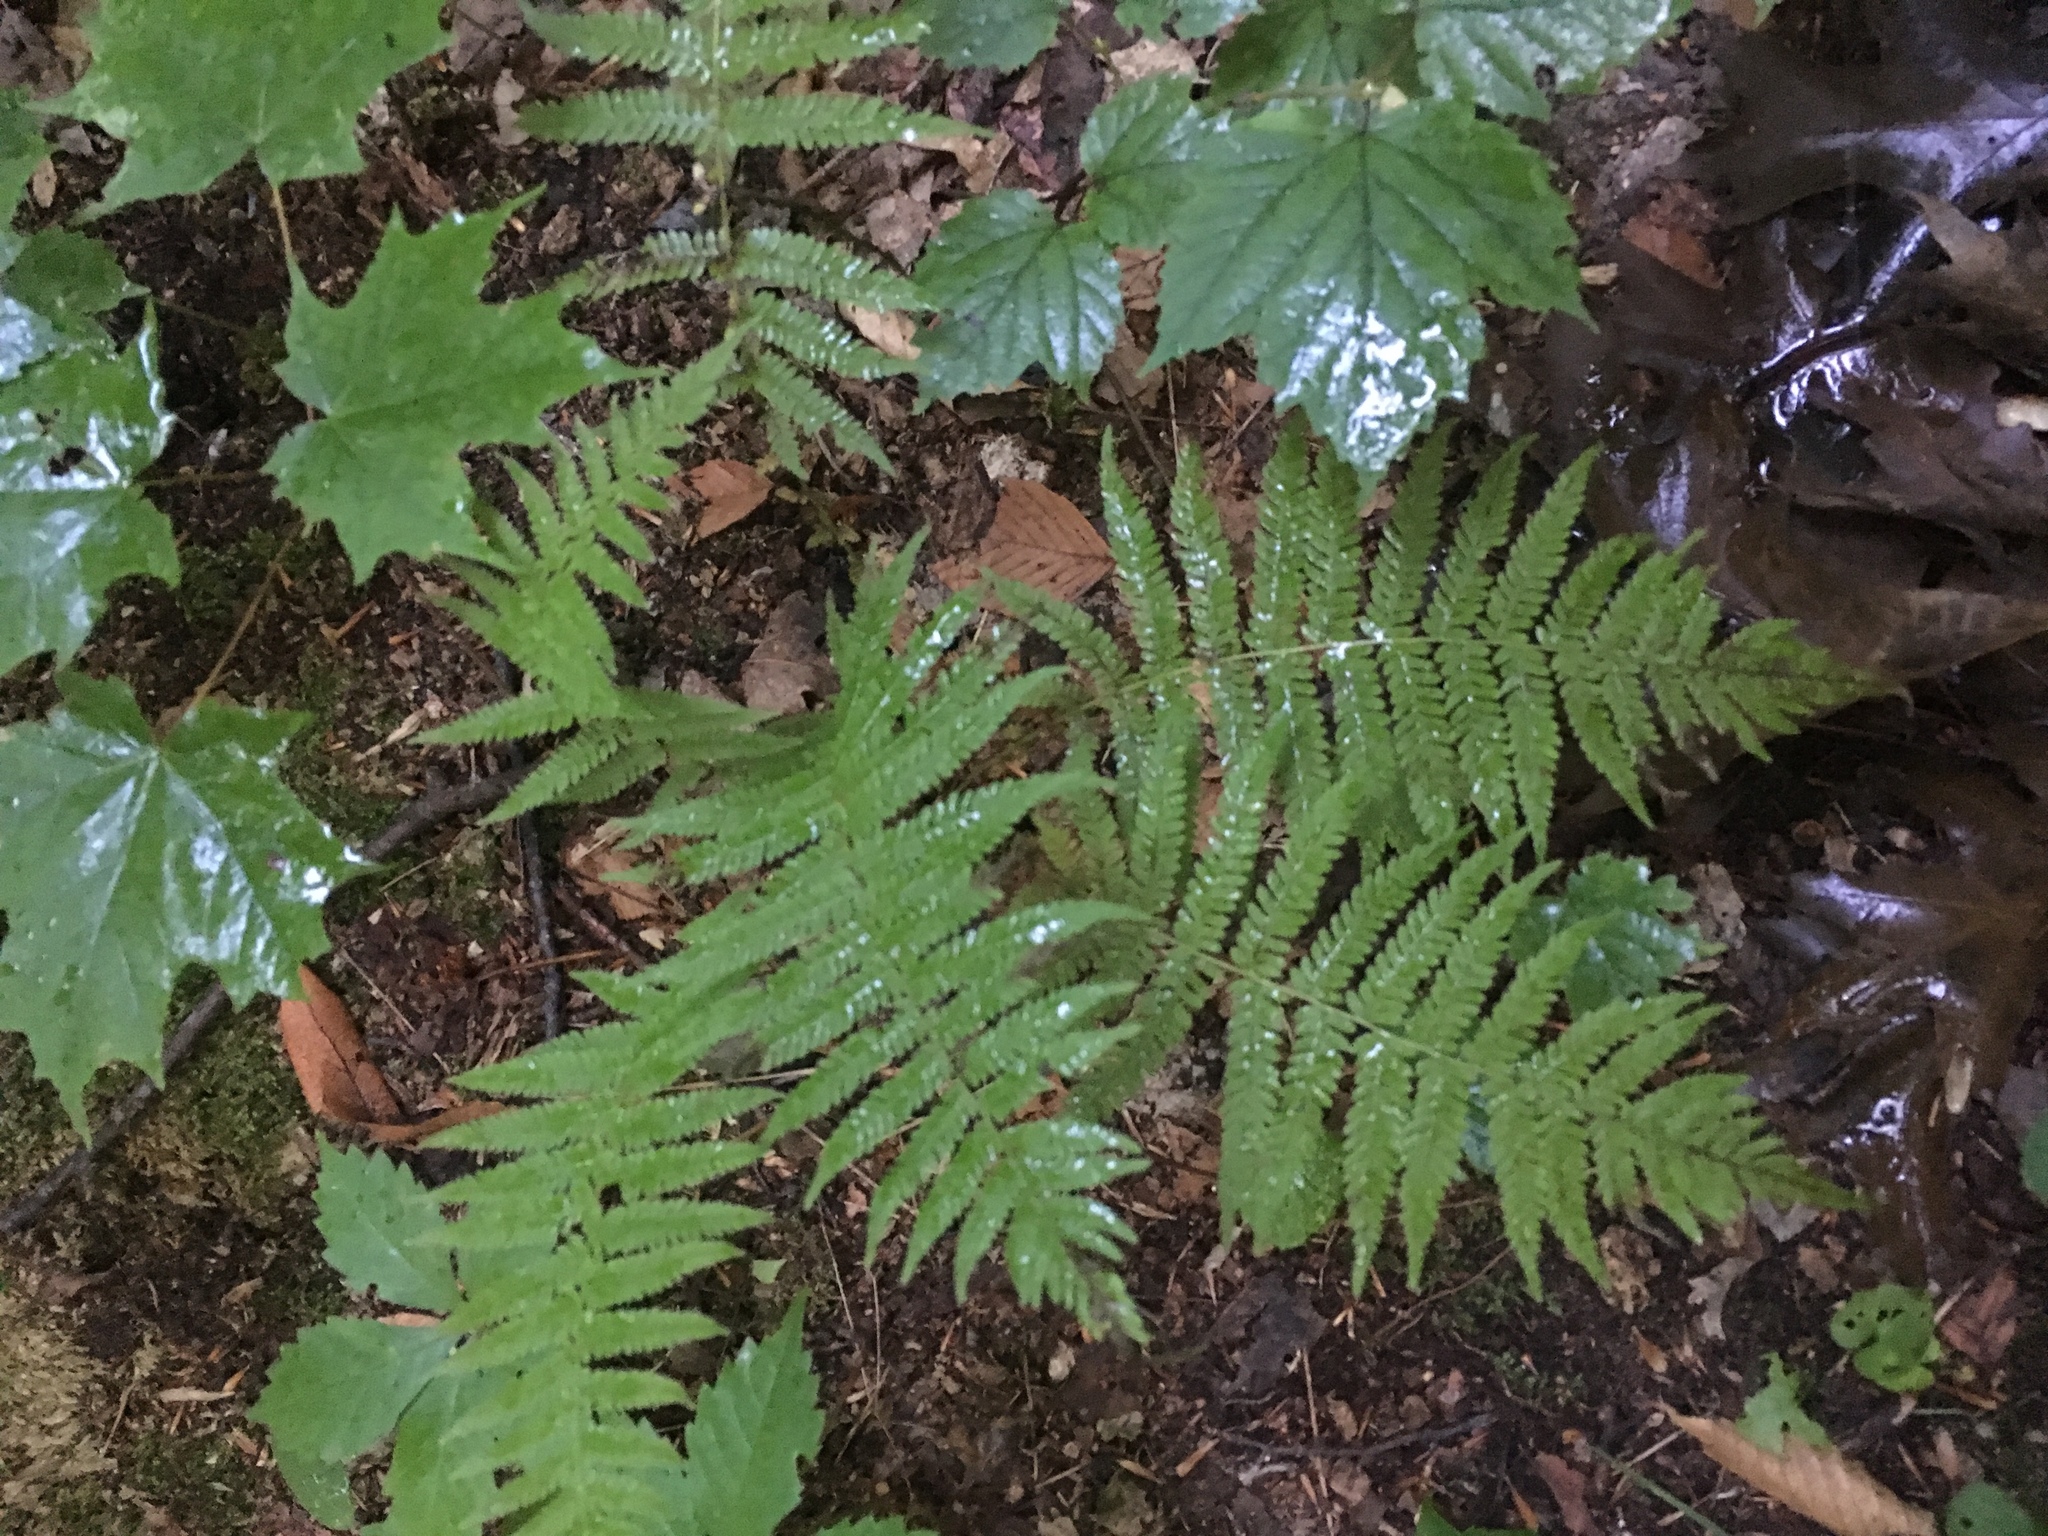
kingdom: Plantae
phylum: Tracheophyta
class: Polypodiopsida
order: Polypodiales
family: Thelypteridaceae
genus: Amauropelta
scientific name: Amauropelta noveboracensis
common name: New york fern
